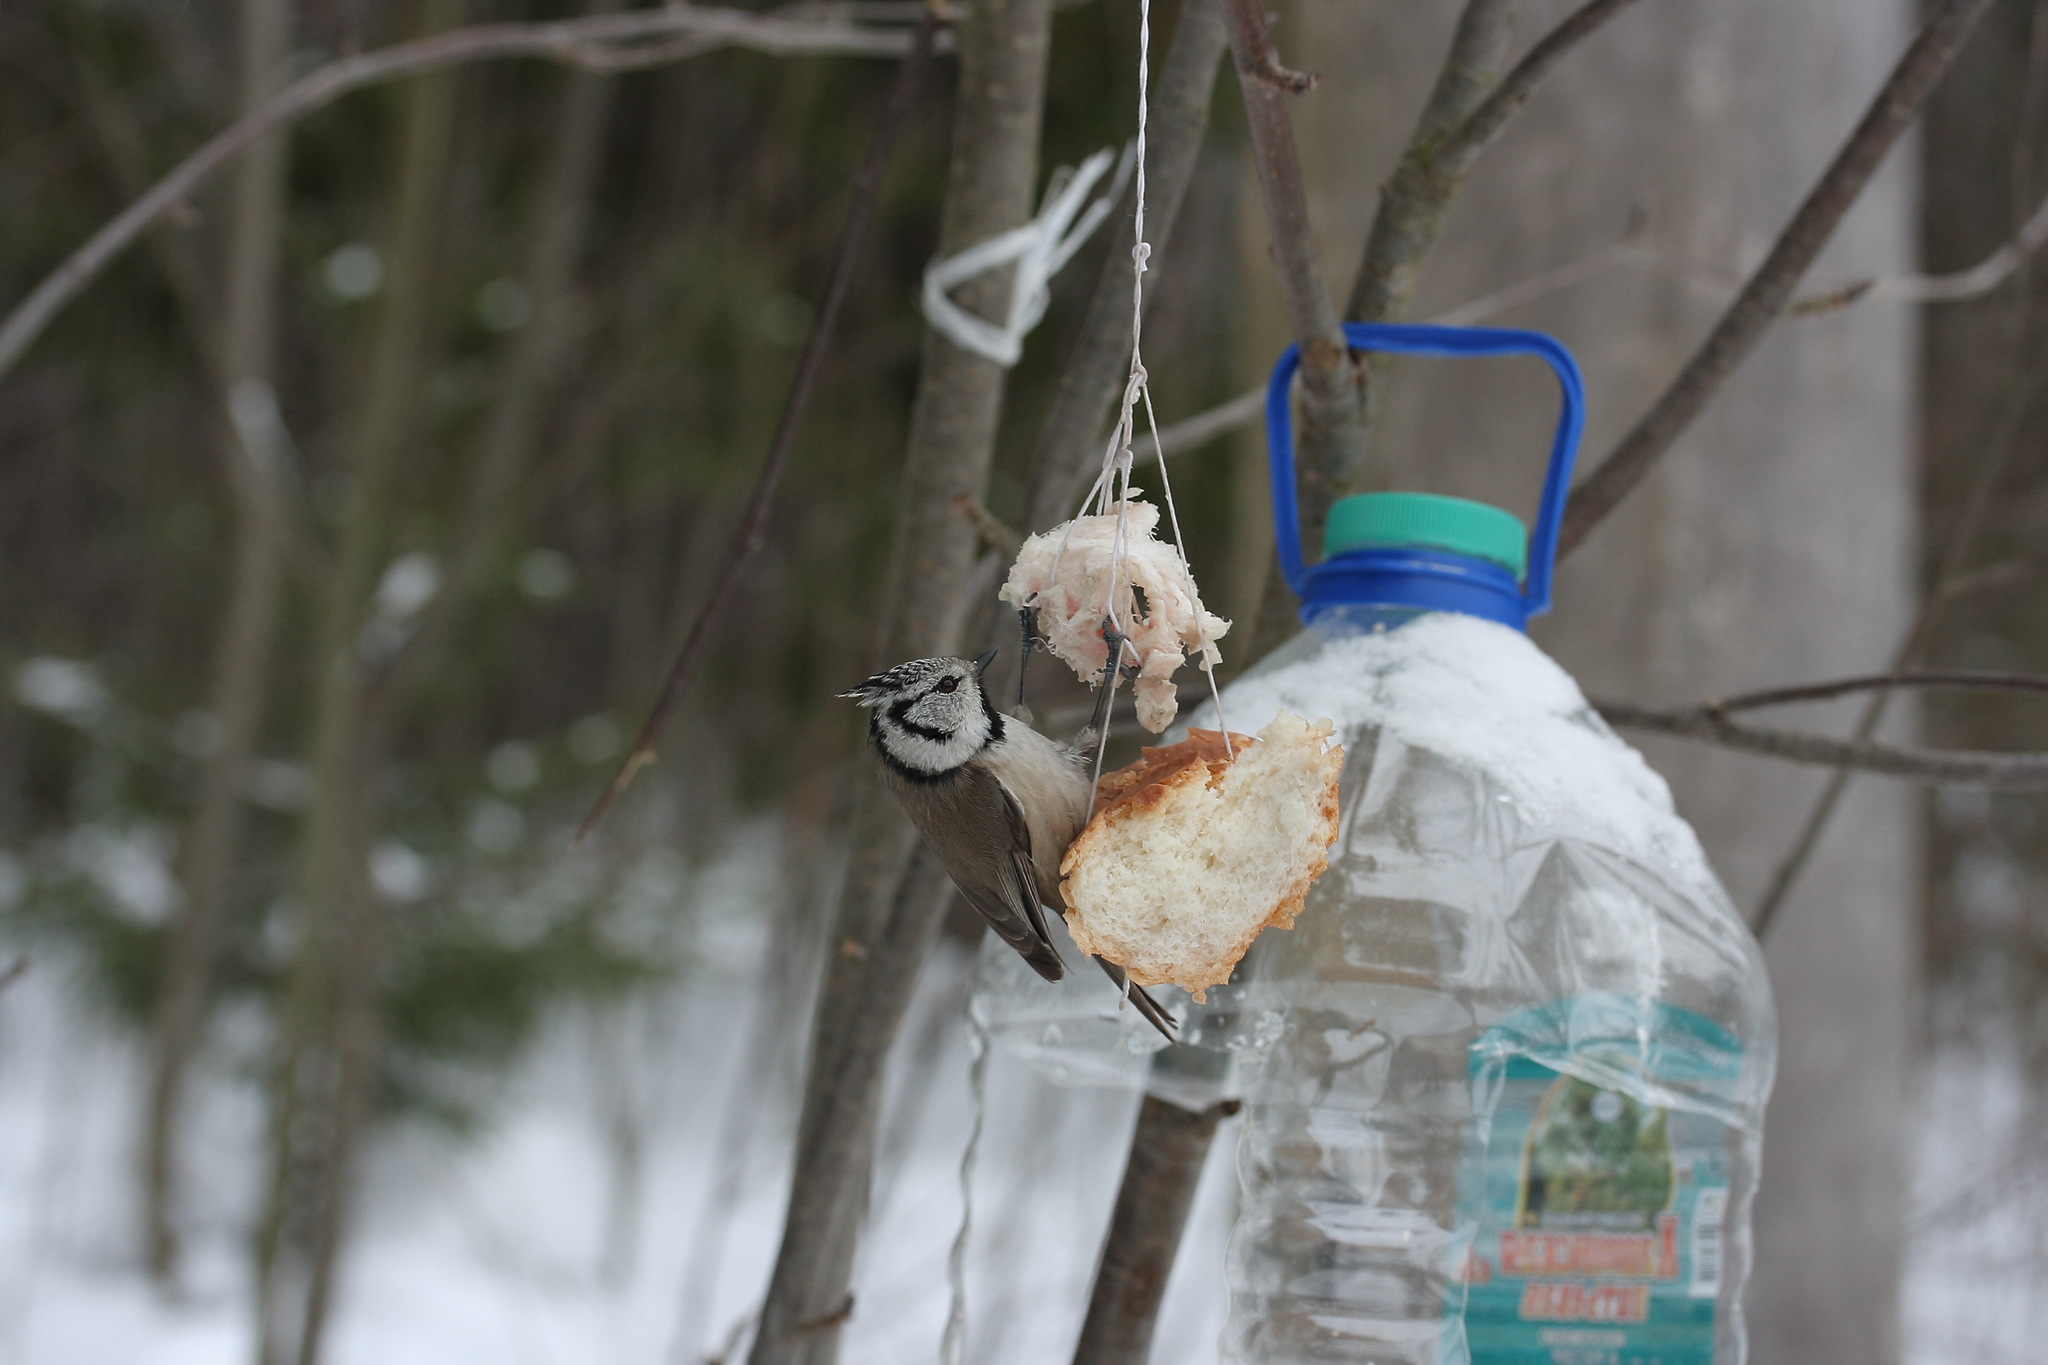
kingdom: Animalia
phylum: Chordata
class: Aves
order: Passeriformes
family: Paridae
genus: Lophophanes
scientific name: Lophophanes cristatus
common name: European crested tit
